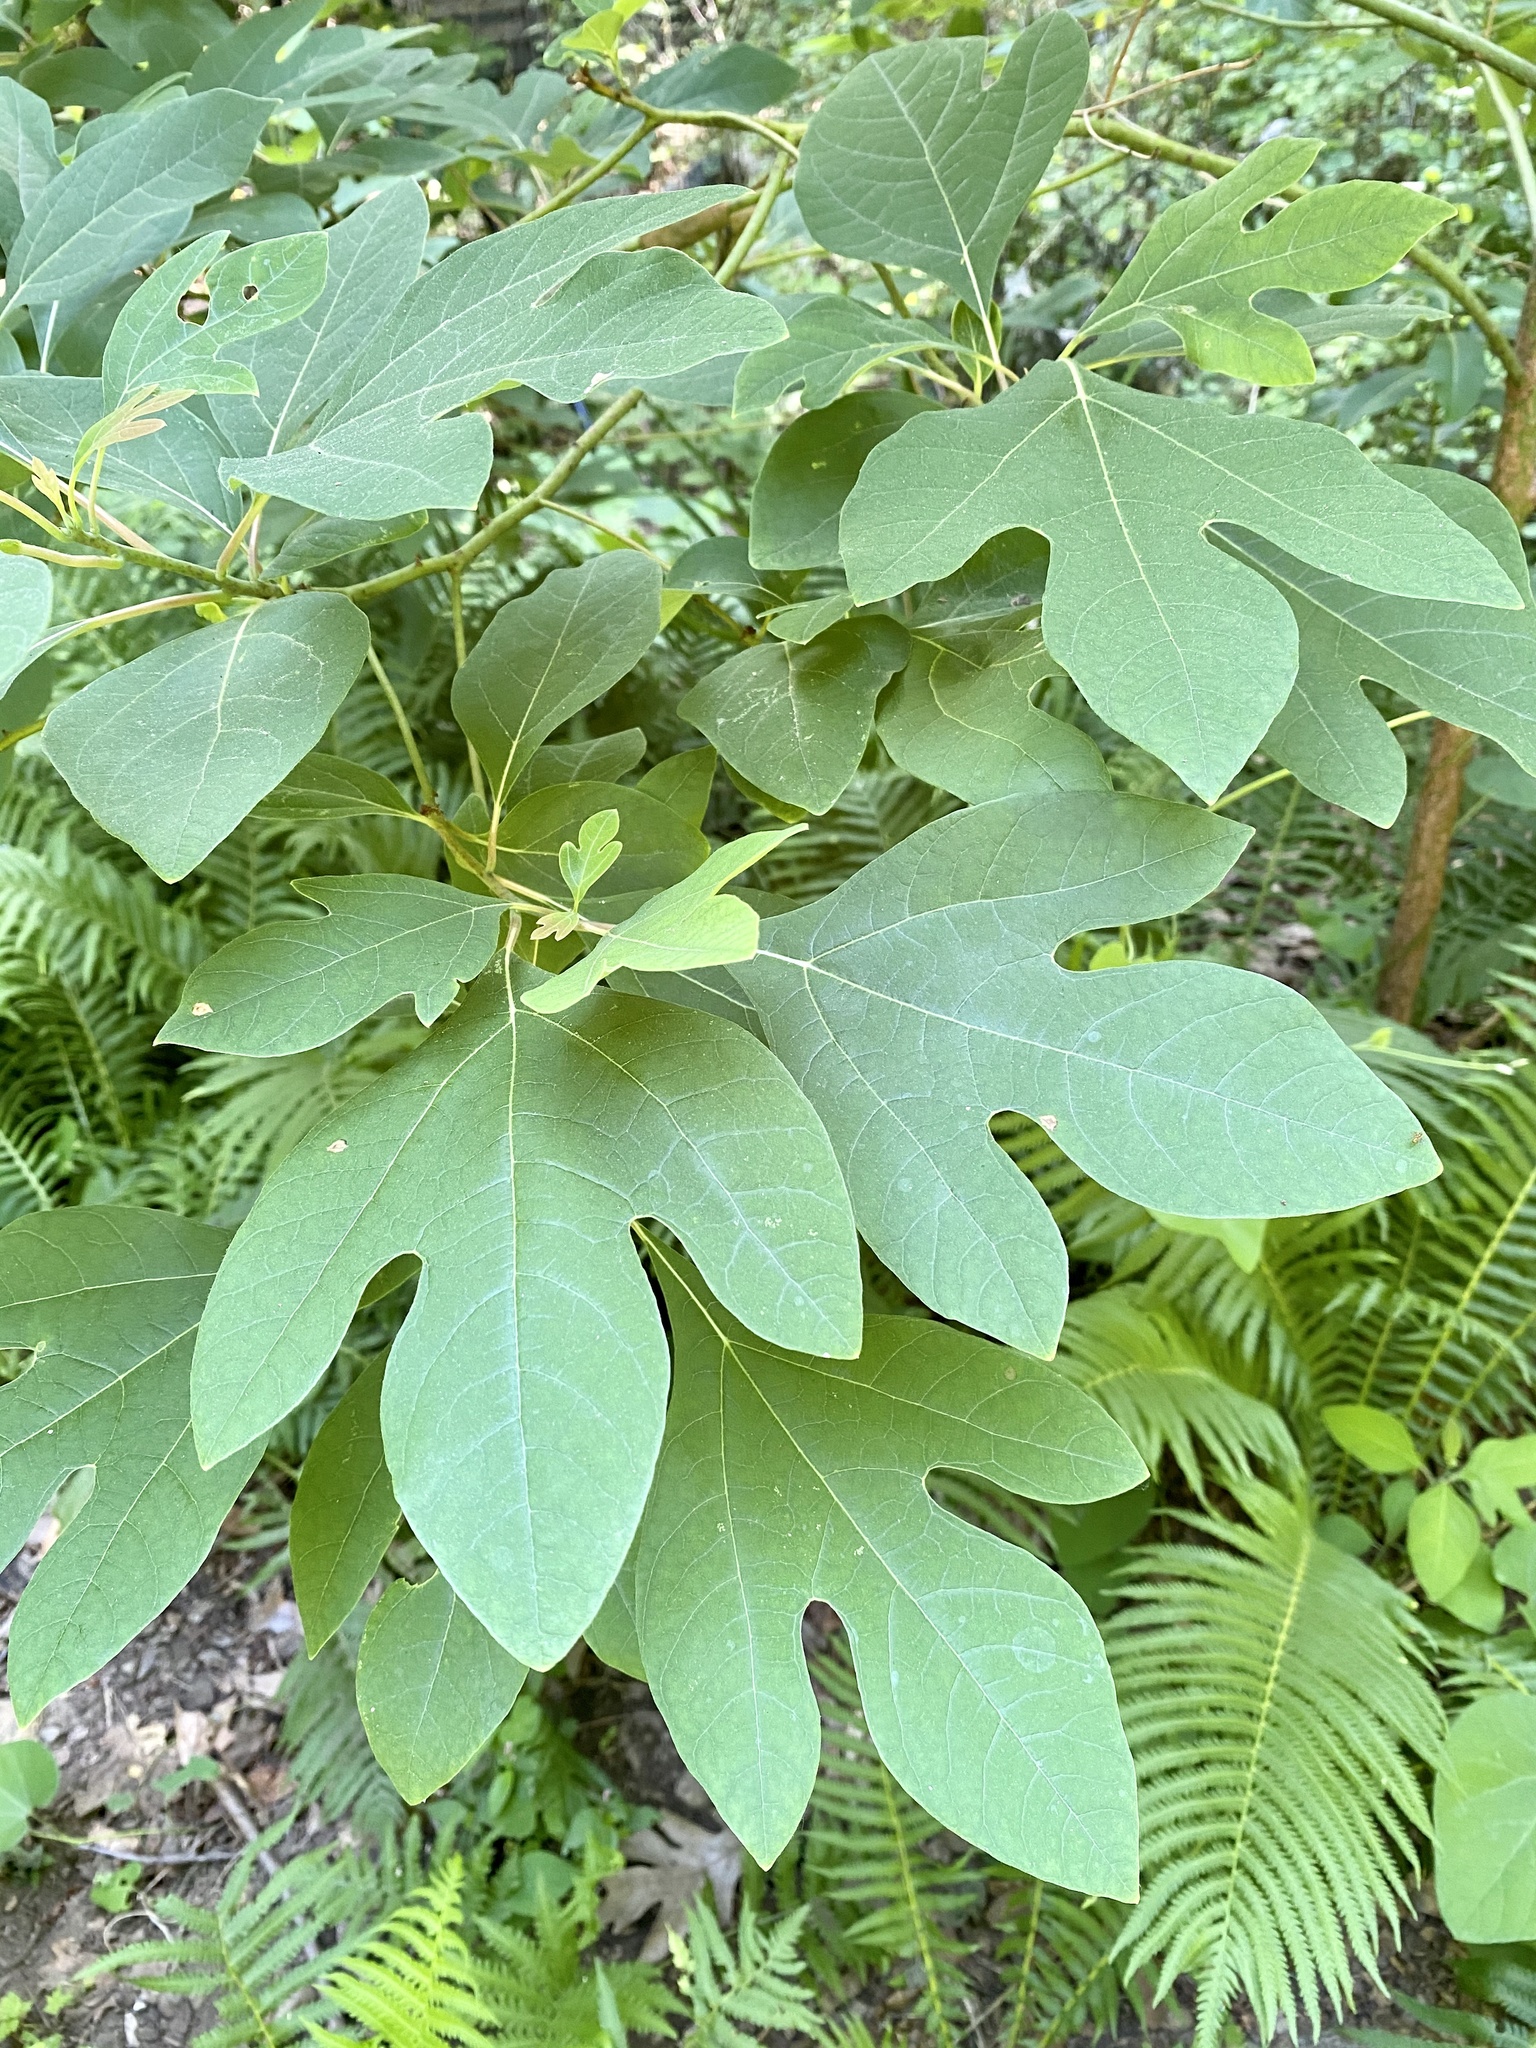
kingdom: Plantae
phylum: Tracheophyta
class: Magnoliopsida
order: Laurales
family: Lauraceae
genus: Sassafras
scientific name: Sassafras albidum
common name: Sassafras
